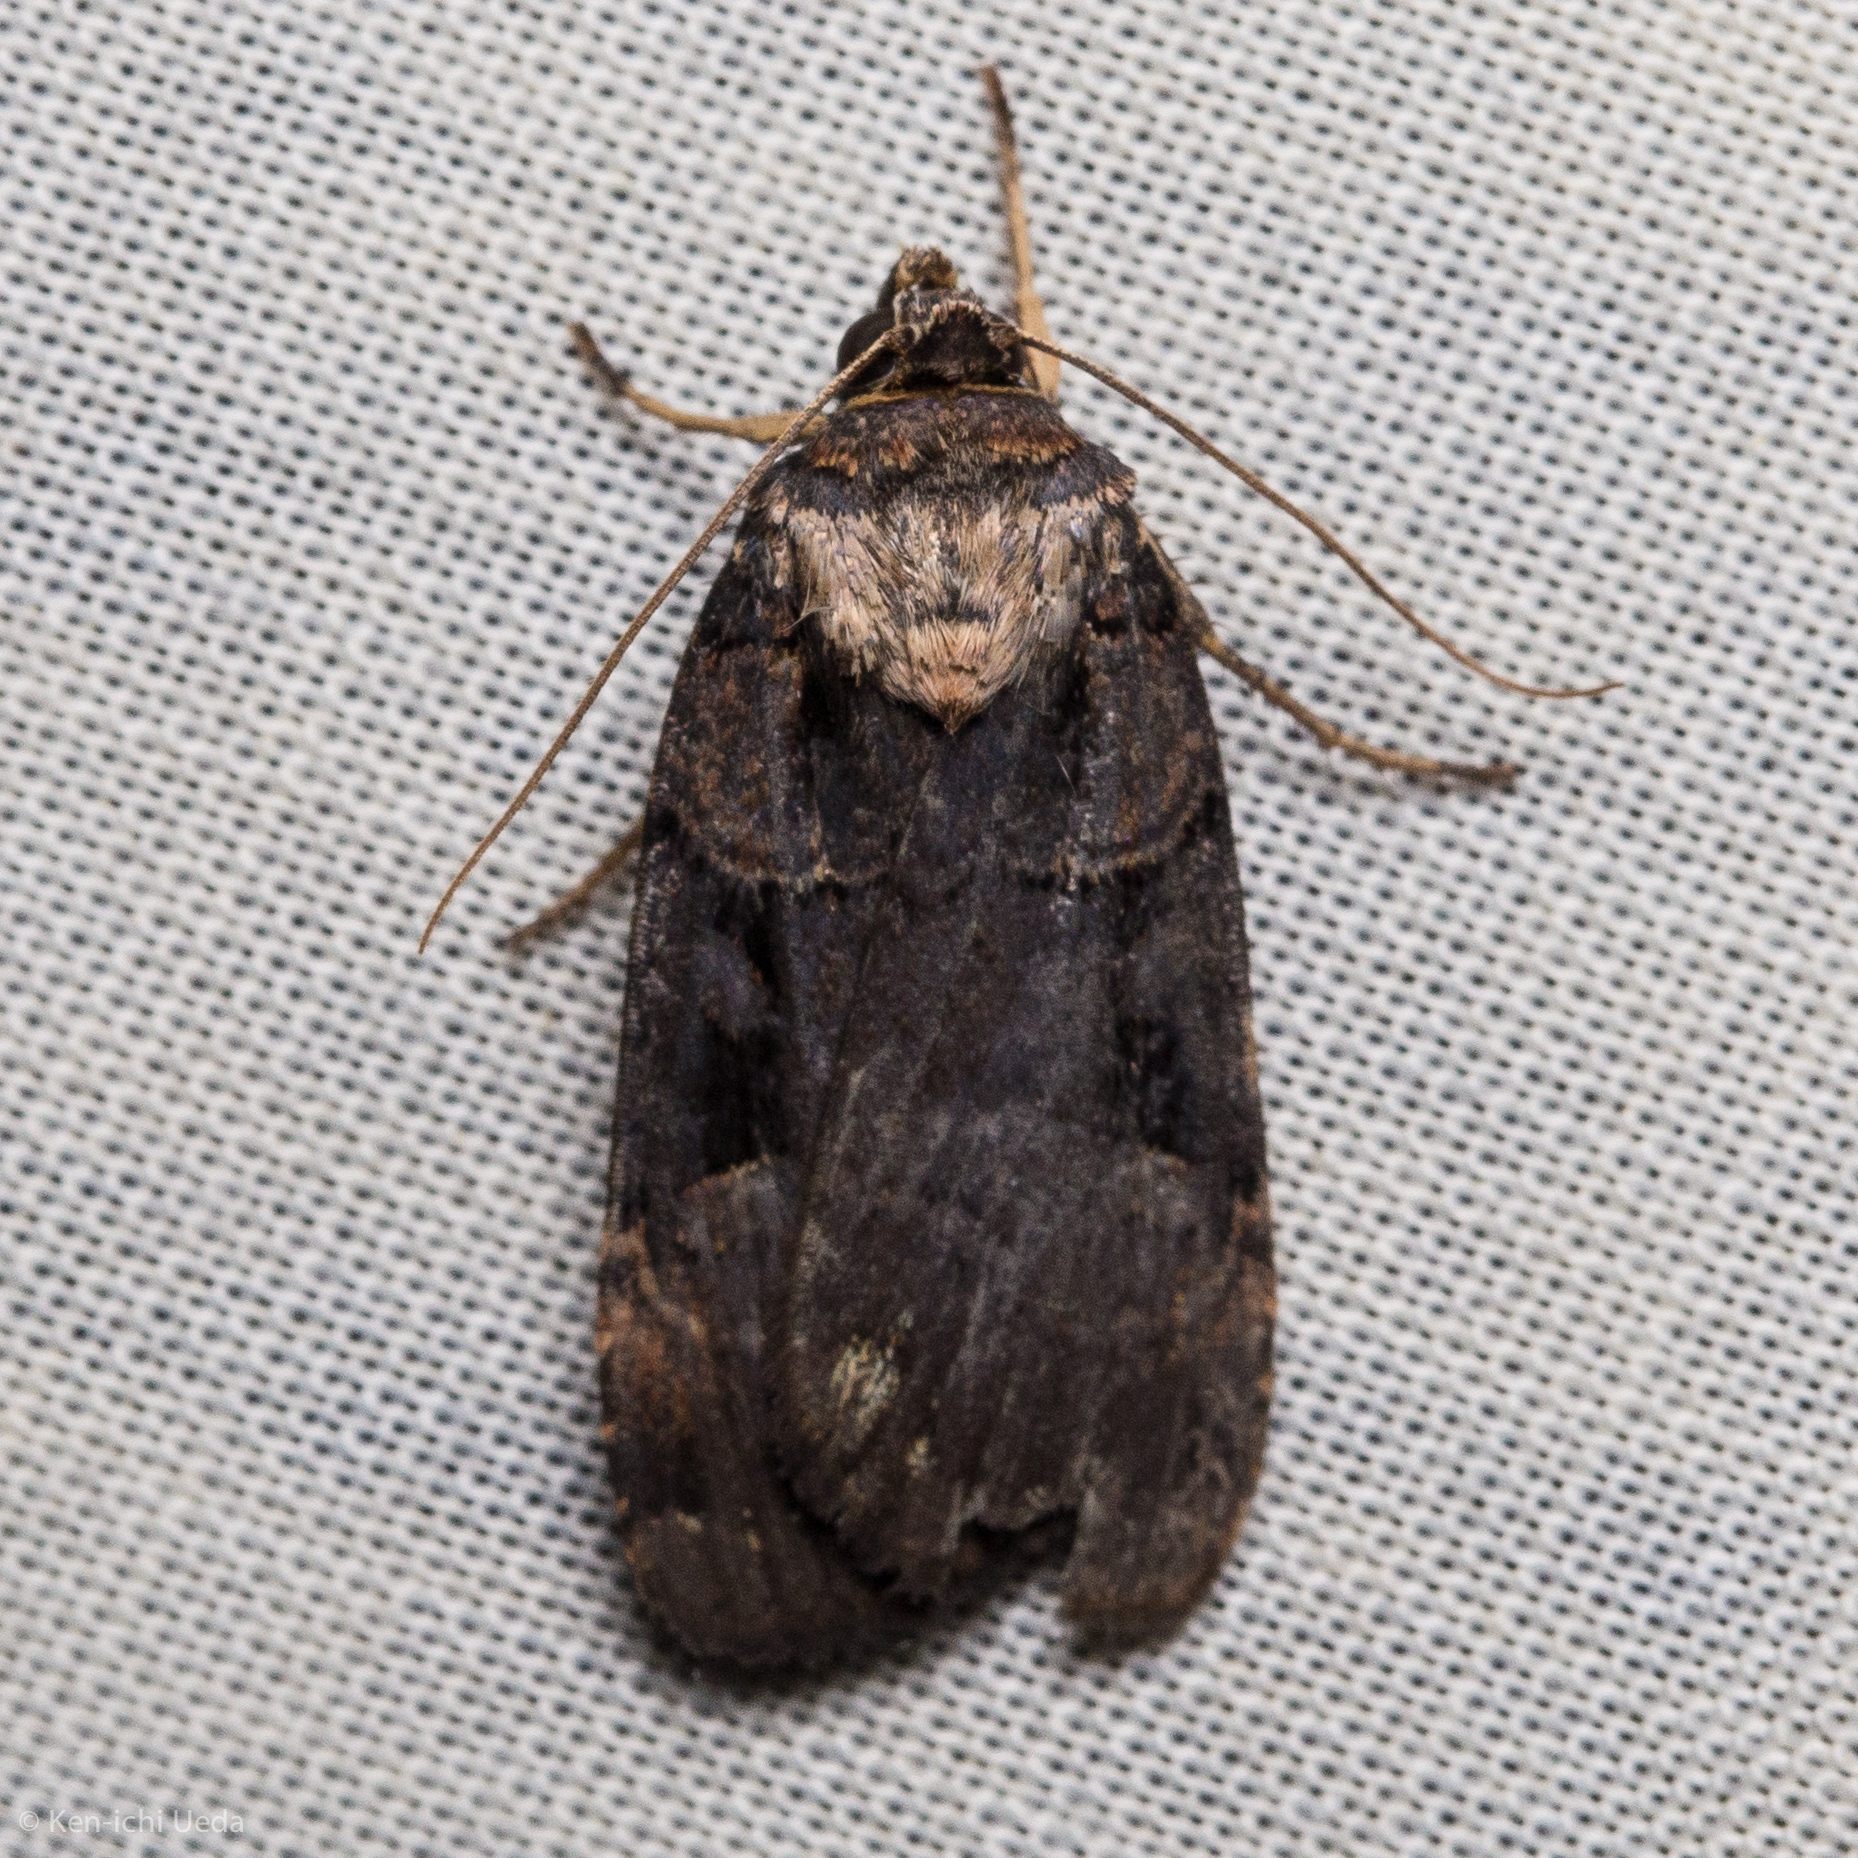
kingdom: Animalia
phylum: Arthropoda
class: Insecta
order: Lepidoptera
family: Noctuidae
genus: Pseudohermonassa
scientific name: Pseudohermonassa bicarnea
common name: Pink spotted dart
